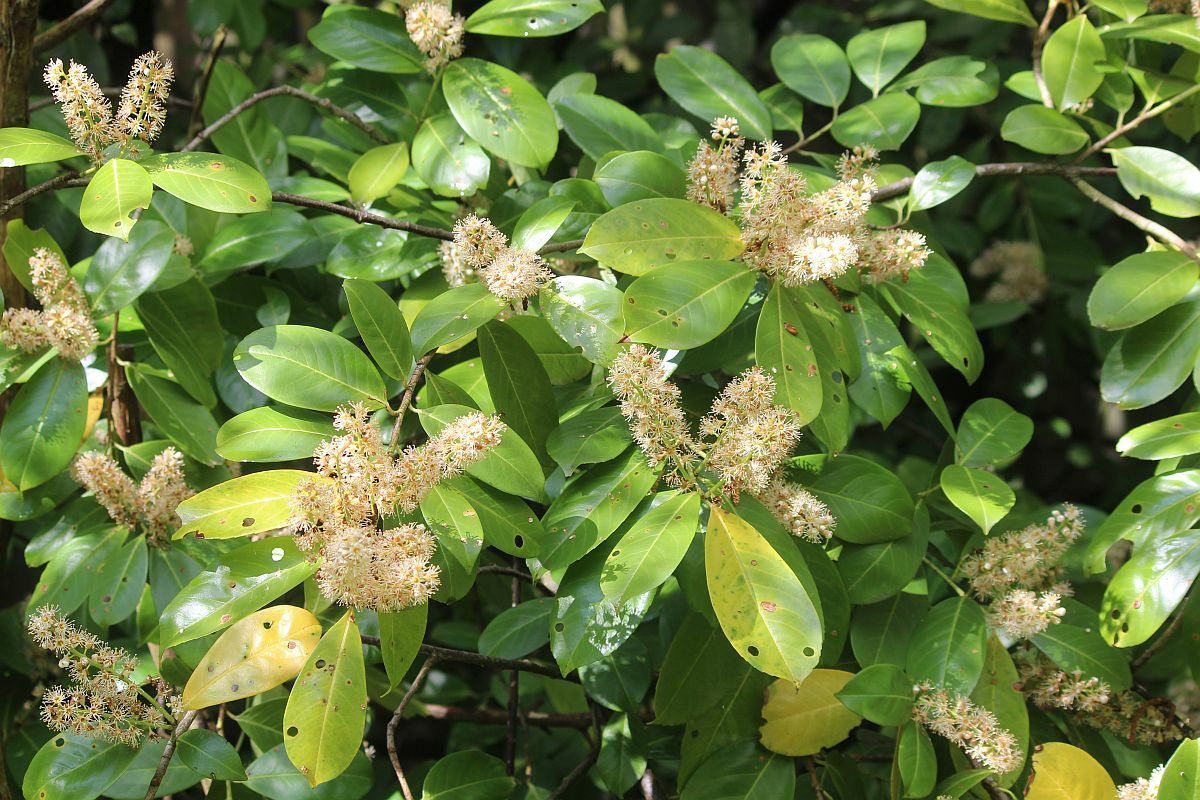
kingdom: Plantae
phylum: Tracheophyta
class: Magnoliopsida
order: Rosales
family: Rosaceae
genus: Prunus
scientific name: Prunus laurocerasus
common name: Cherry laurel
